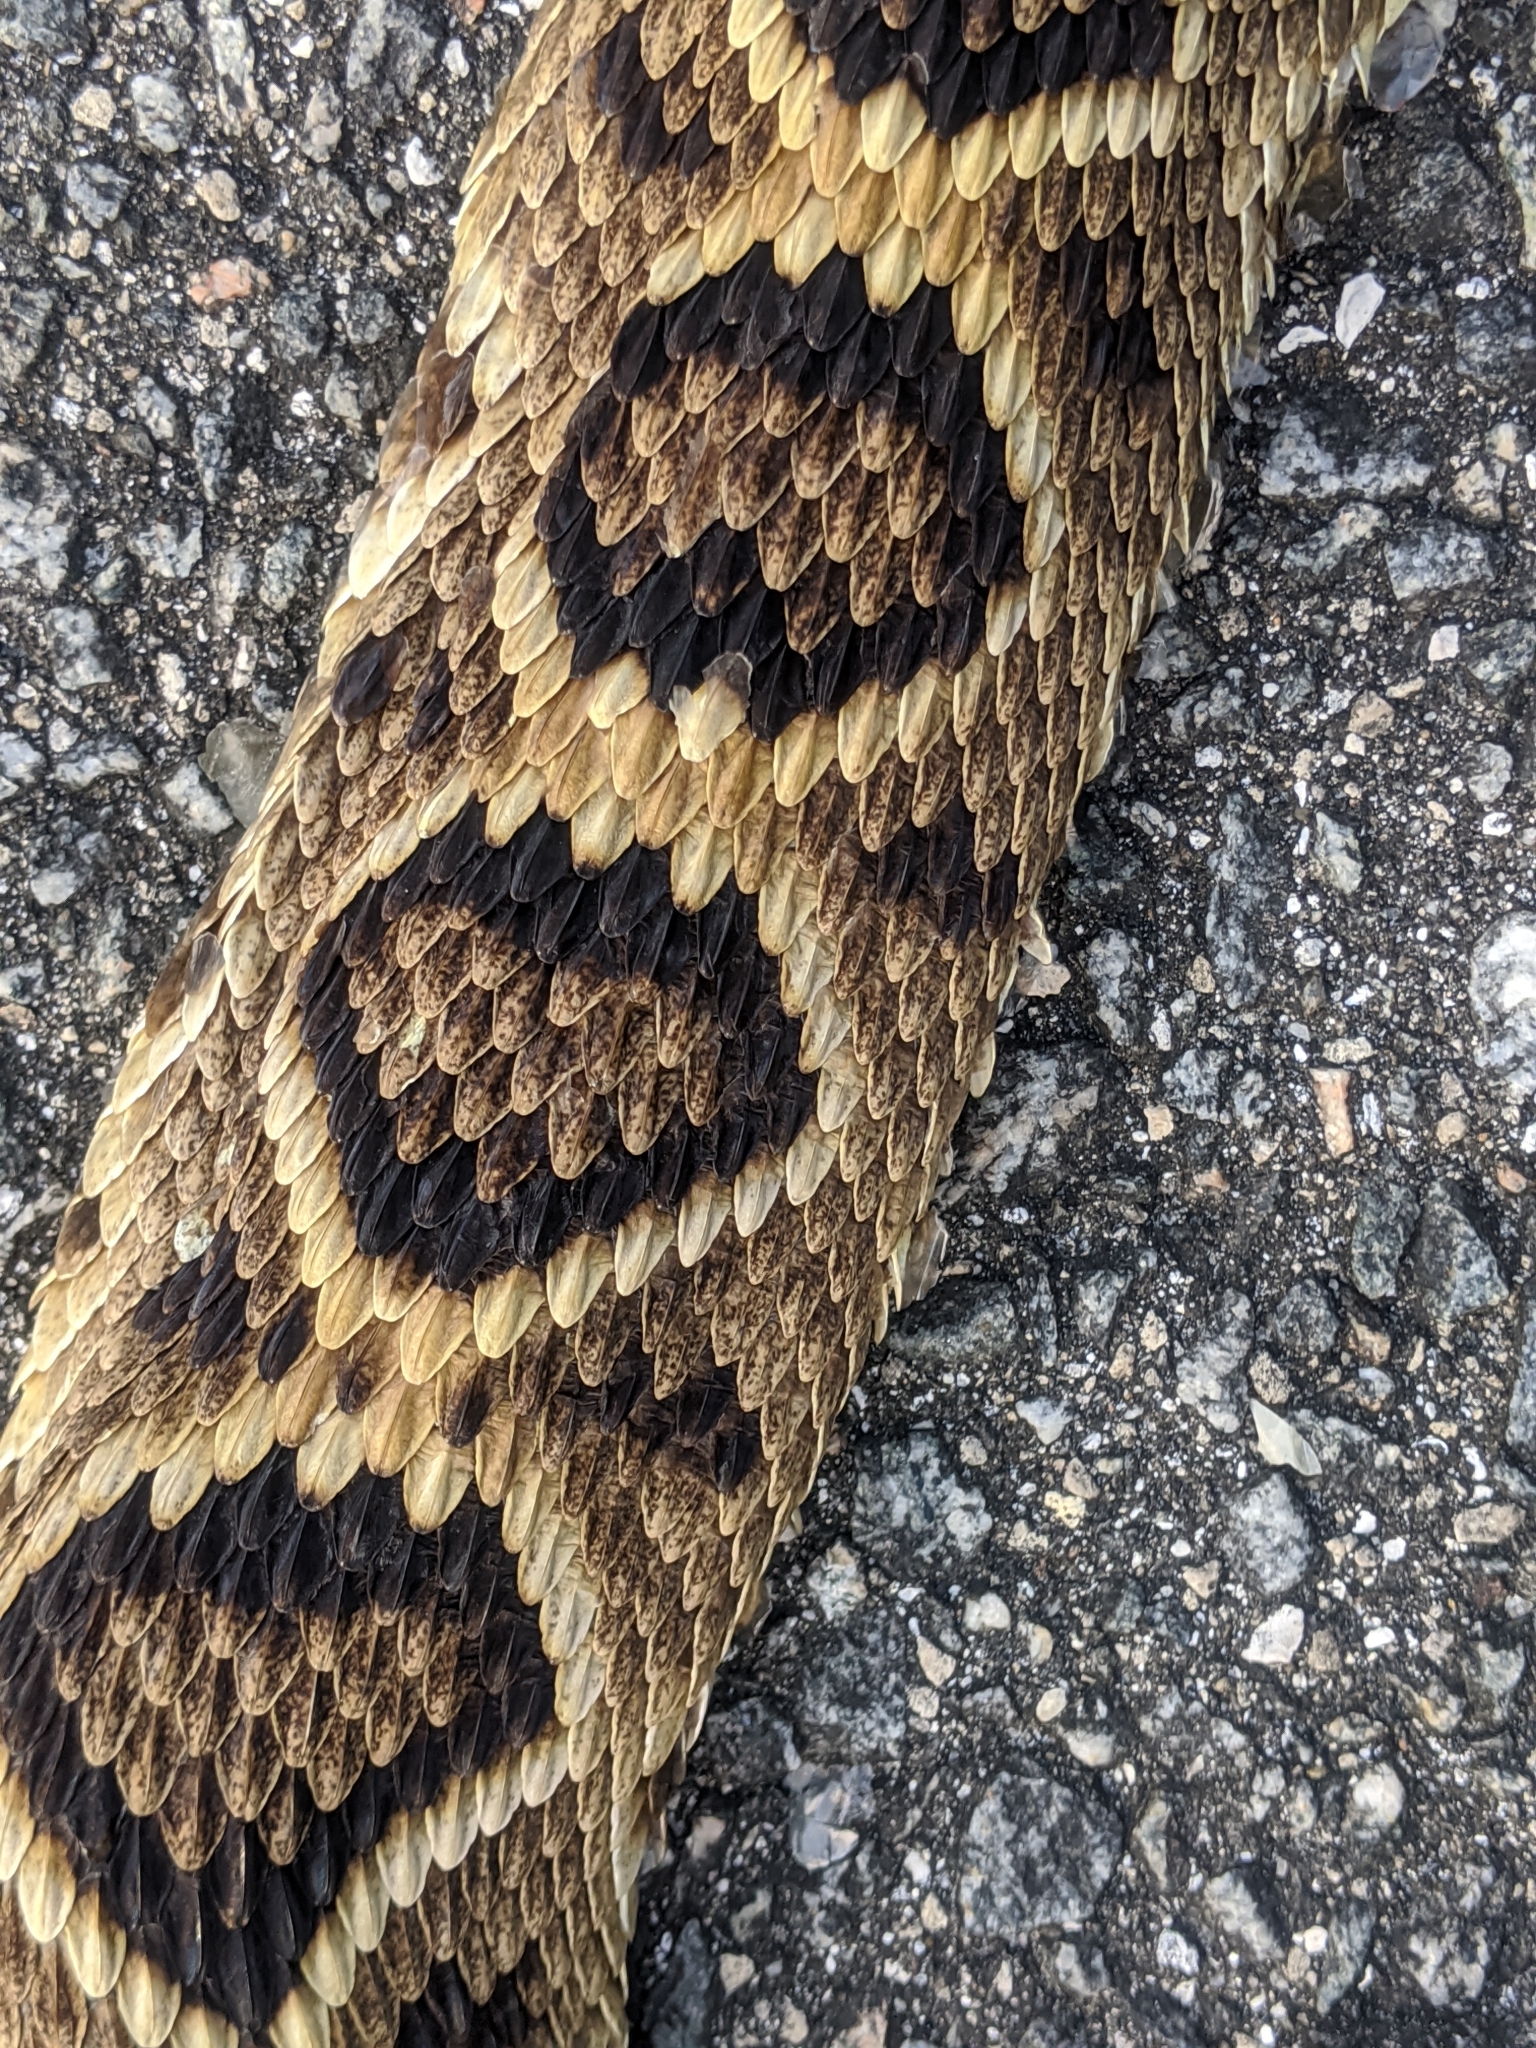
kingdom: Animalia
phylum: Chordata
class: Squamata
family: Viperidae
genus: Crotalus
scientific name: Crotalus adamanteus
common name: Eastern diamondback rattlesnake
